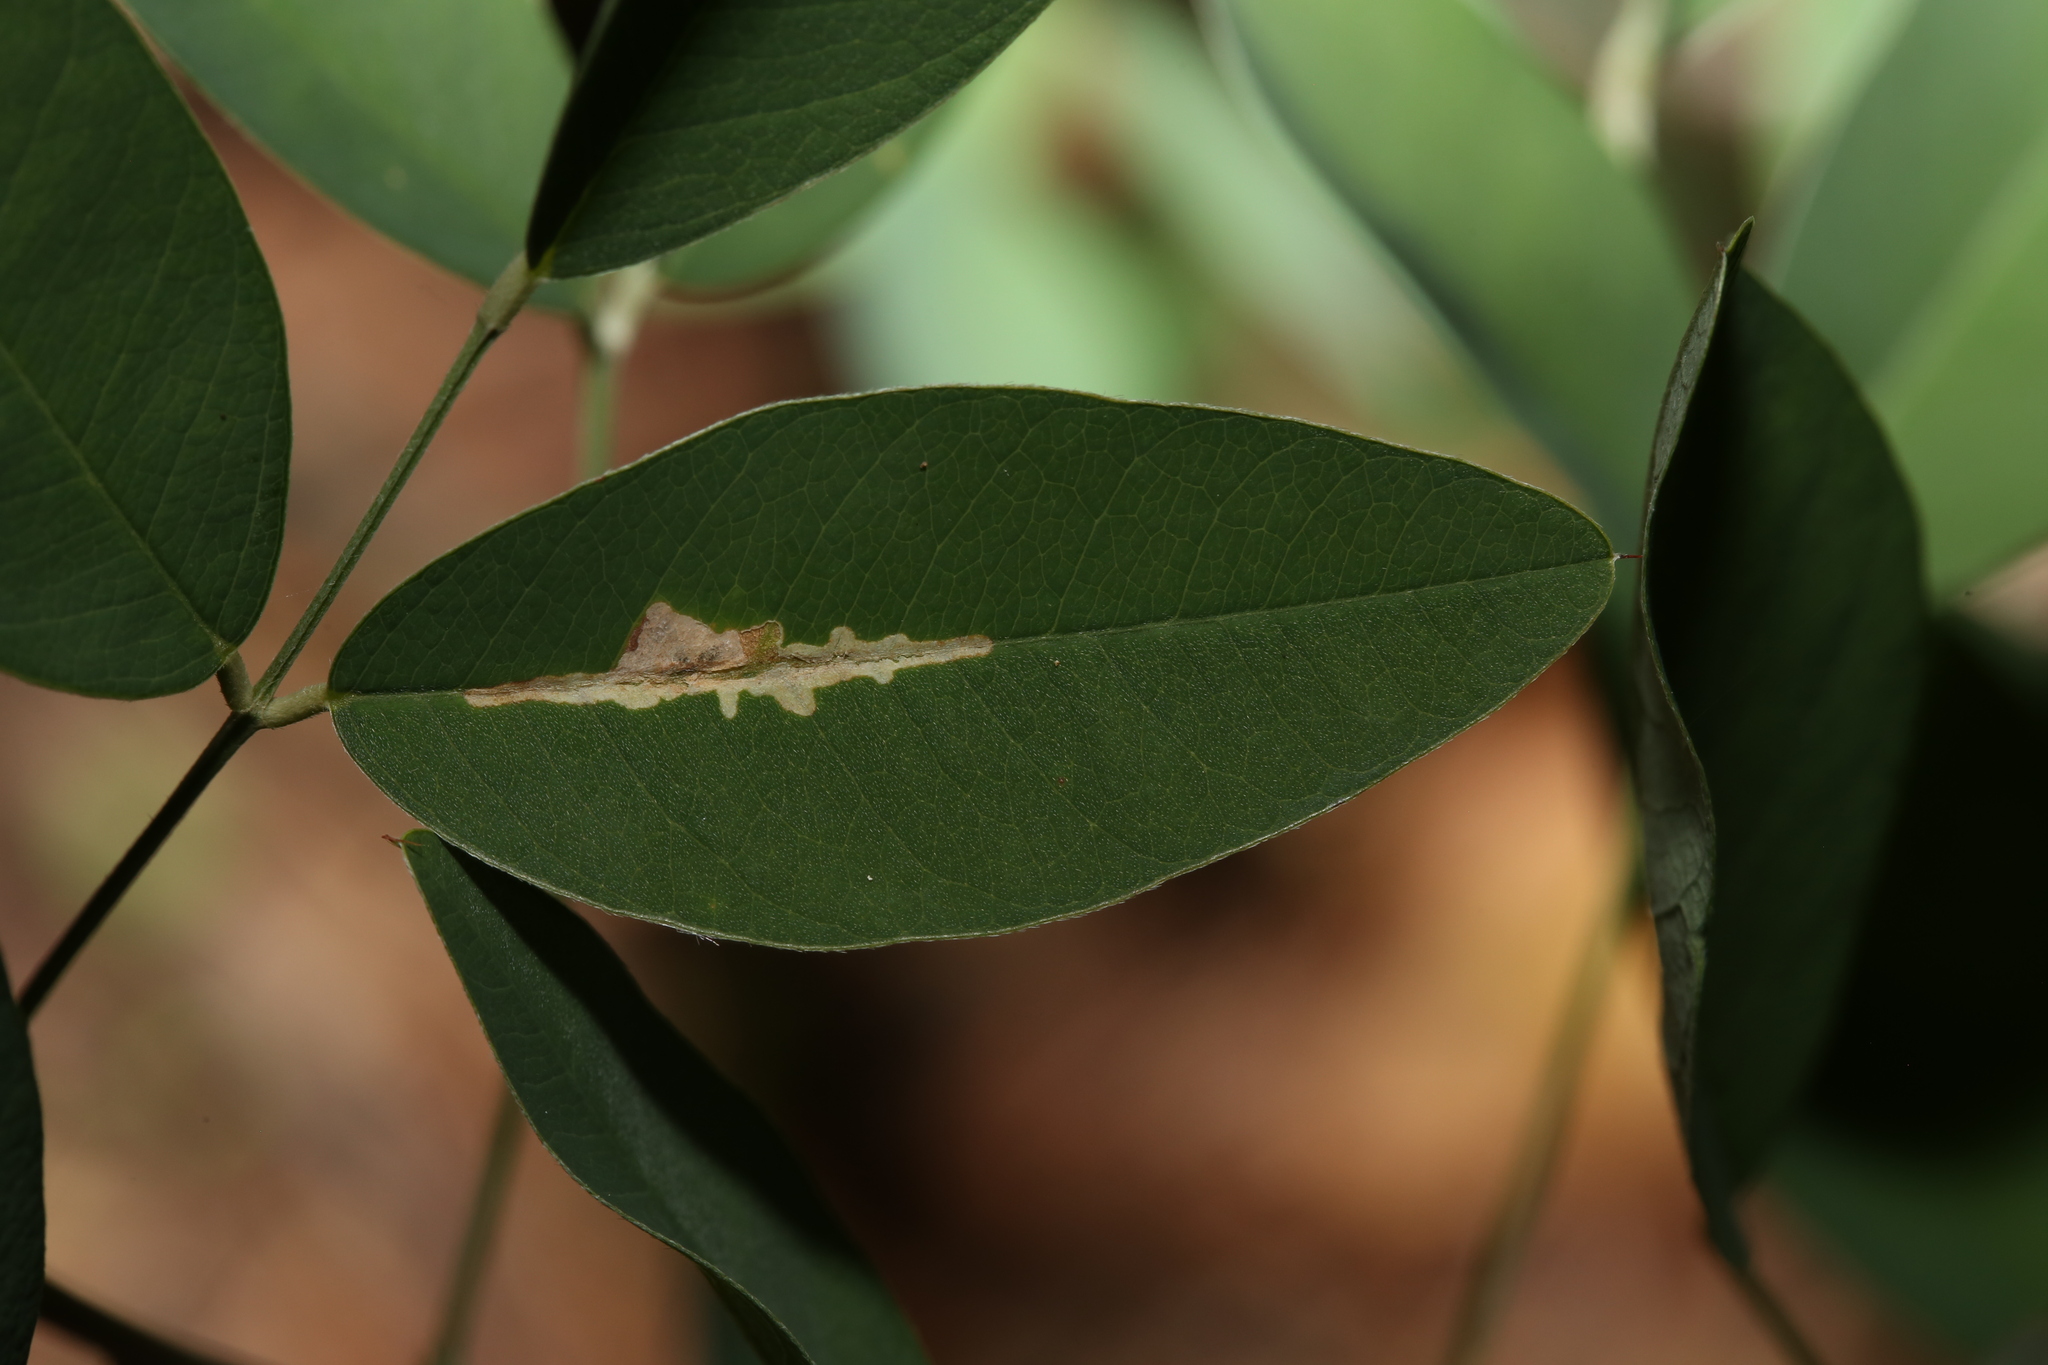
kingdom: Animalia
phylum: Arthropoda
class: Insecta
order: Lepidoptera
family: Gracillariidae
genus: Parectopa
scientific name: Parectopa lespedezaefoliella
